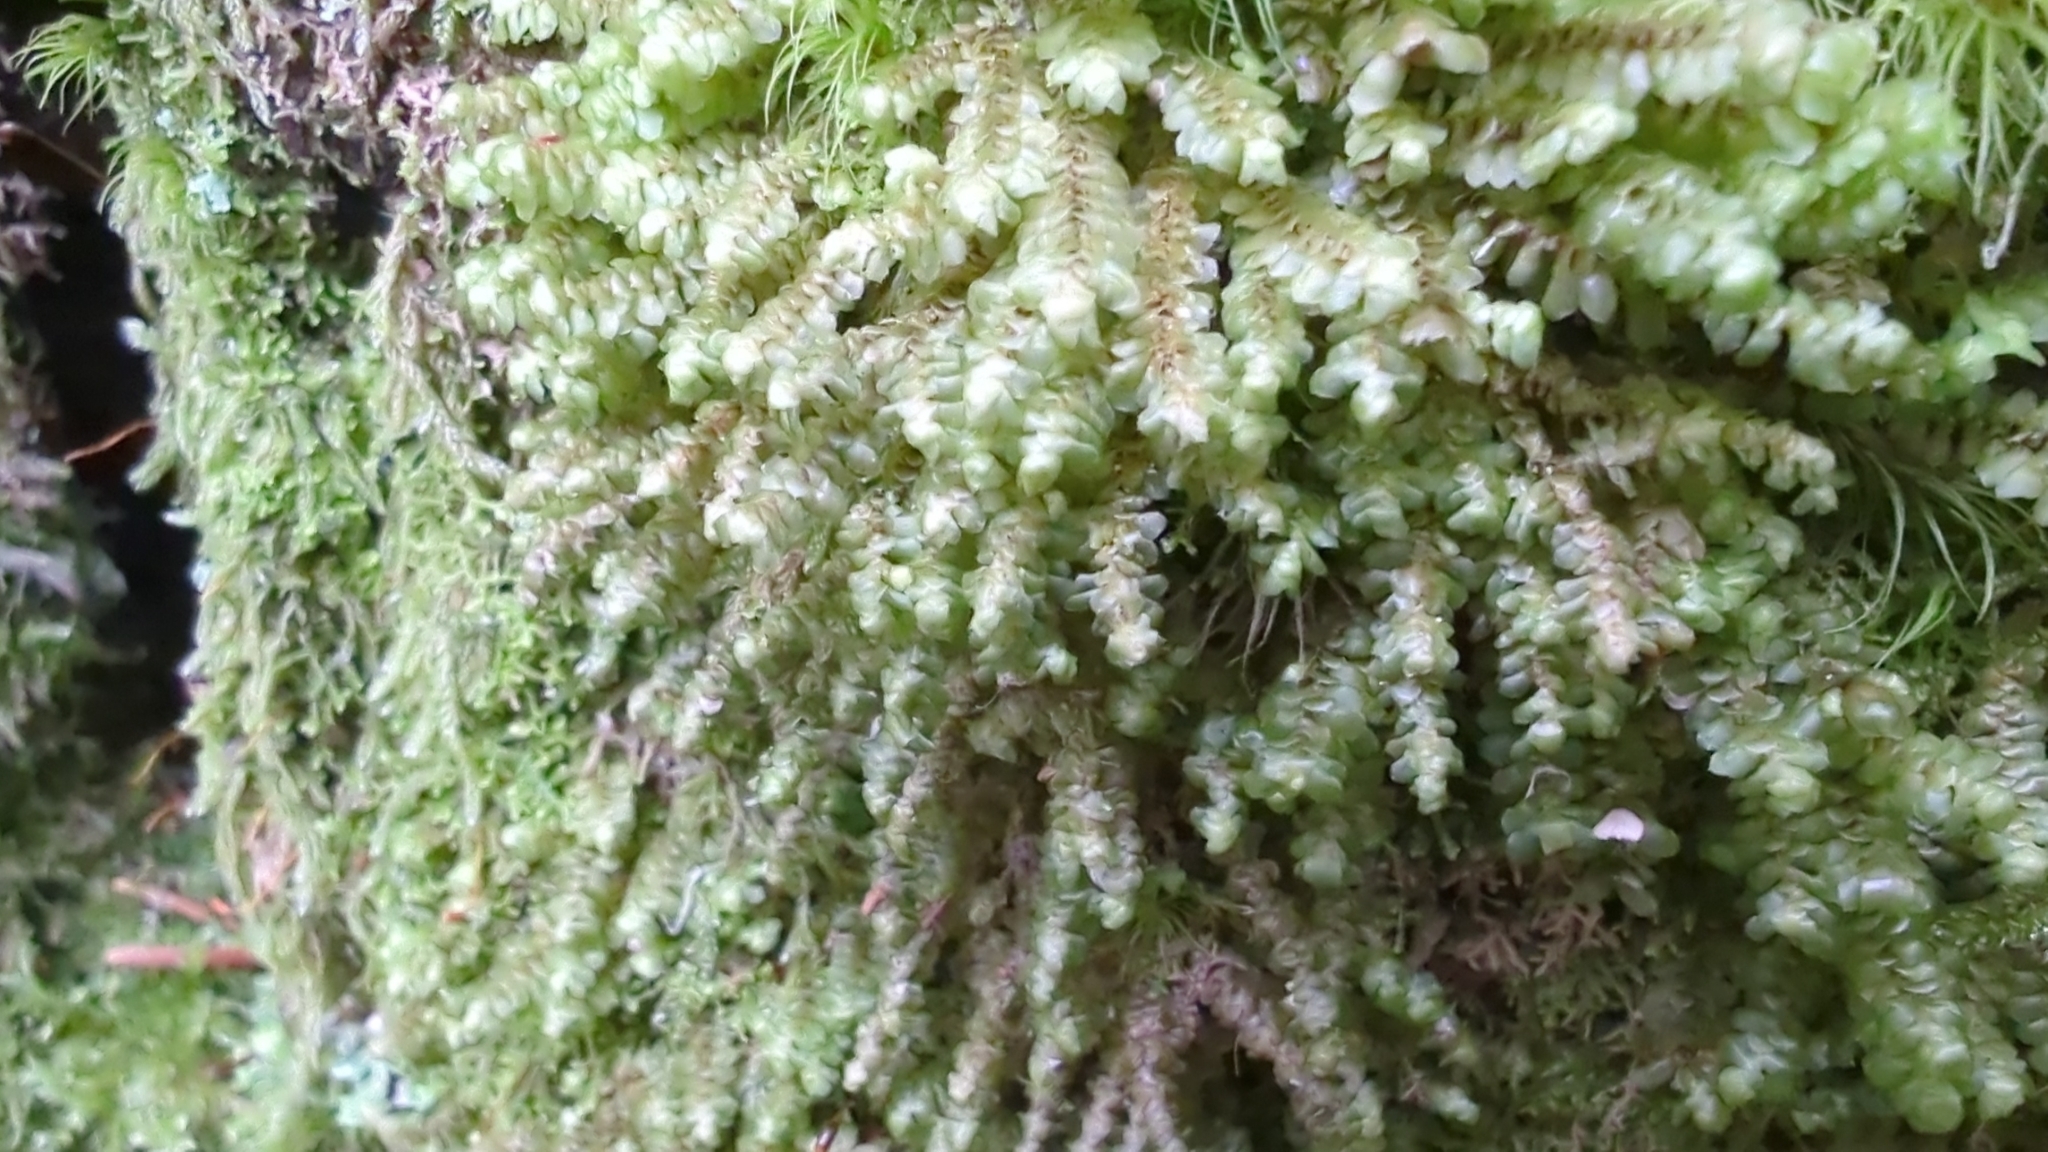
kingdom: Plantae
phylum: Marchantiophyta
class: Jungermanniopsida
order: Jungermanniales
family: Scapaniaceae
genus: Scapania
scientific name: Scapania bolanderi
